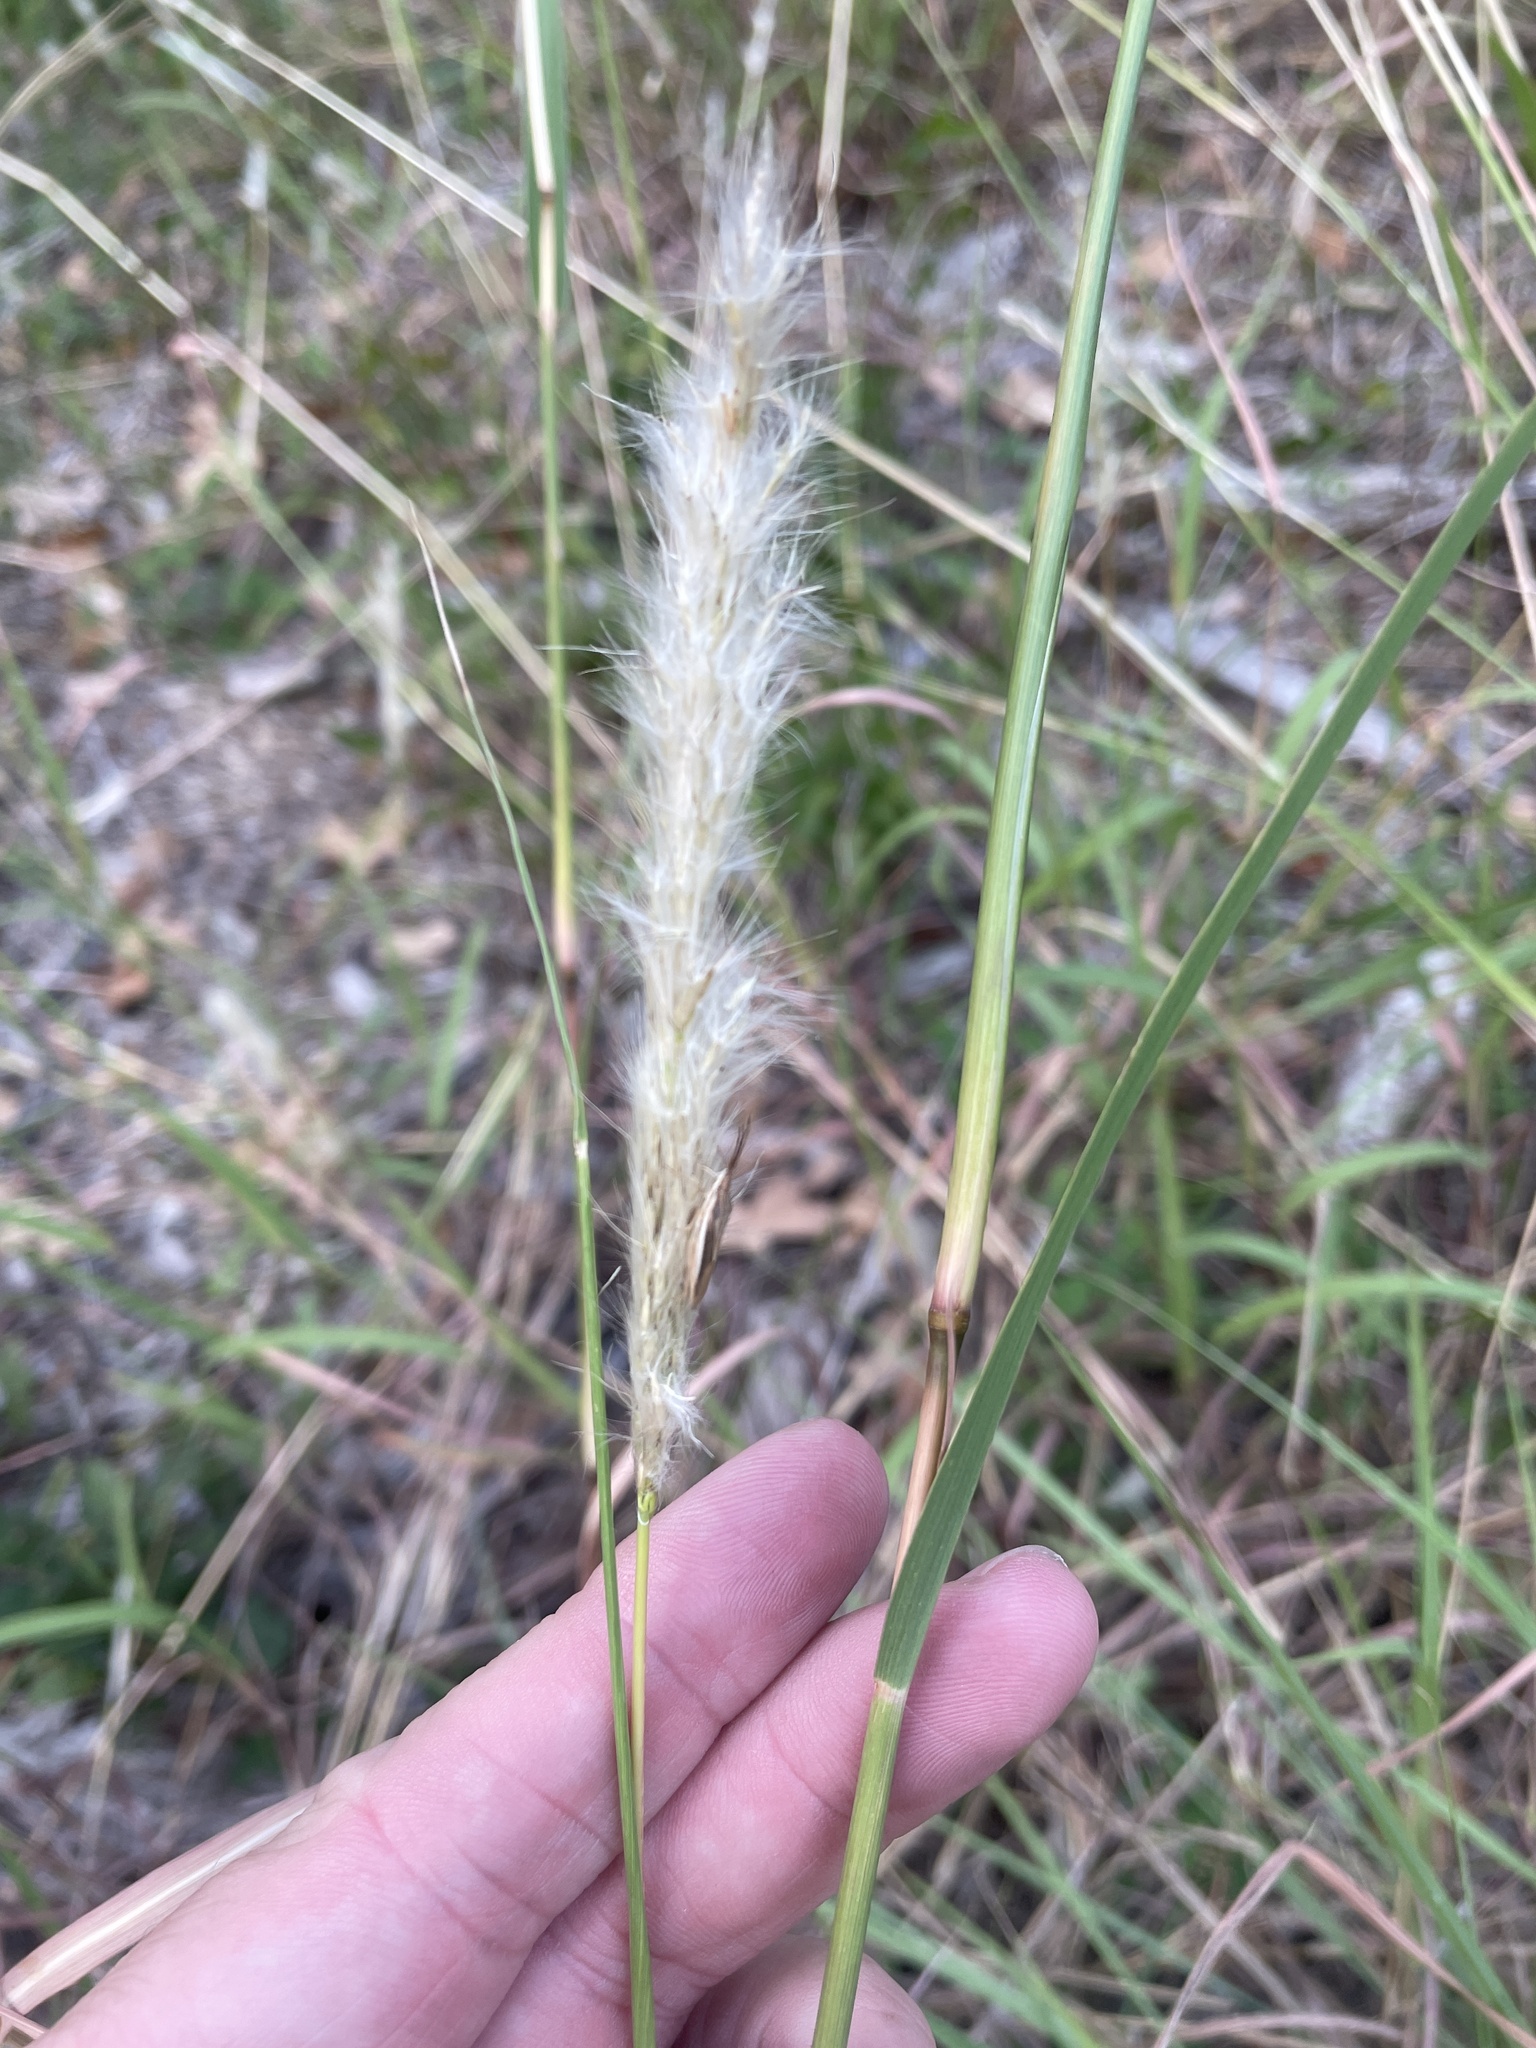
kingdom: Plantae
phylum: Tracheophyta
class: Liliopsida
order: Poales
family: Poaceae
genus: Bothriochloa
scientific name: Bothriochloa torreyana
